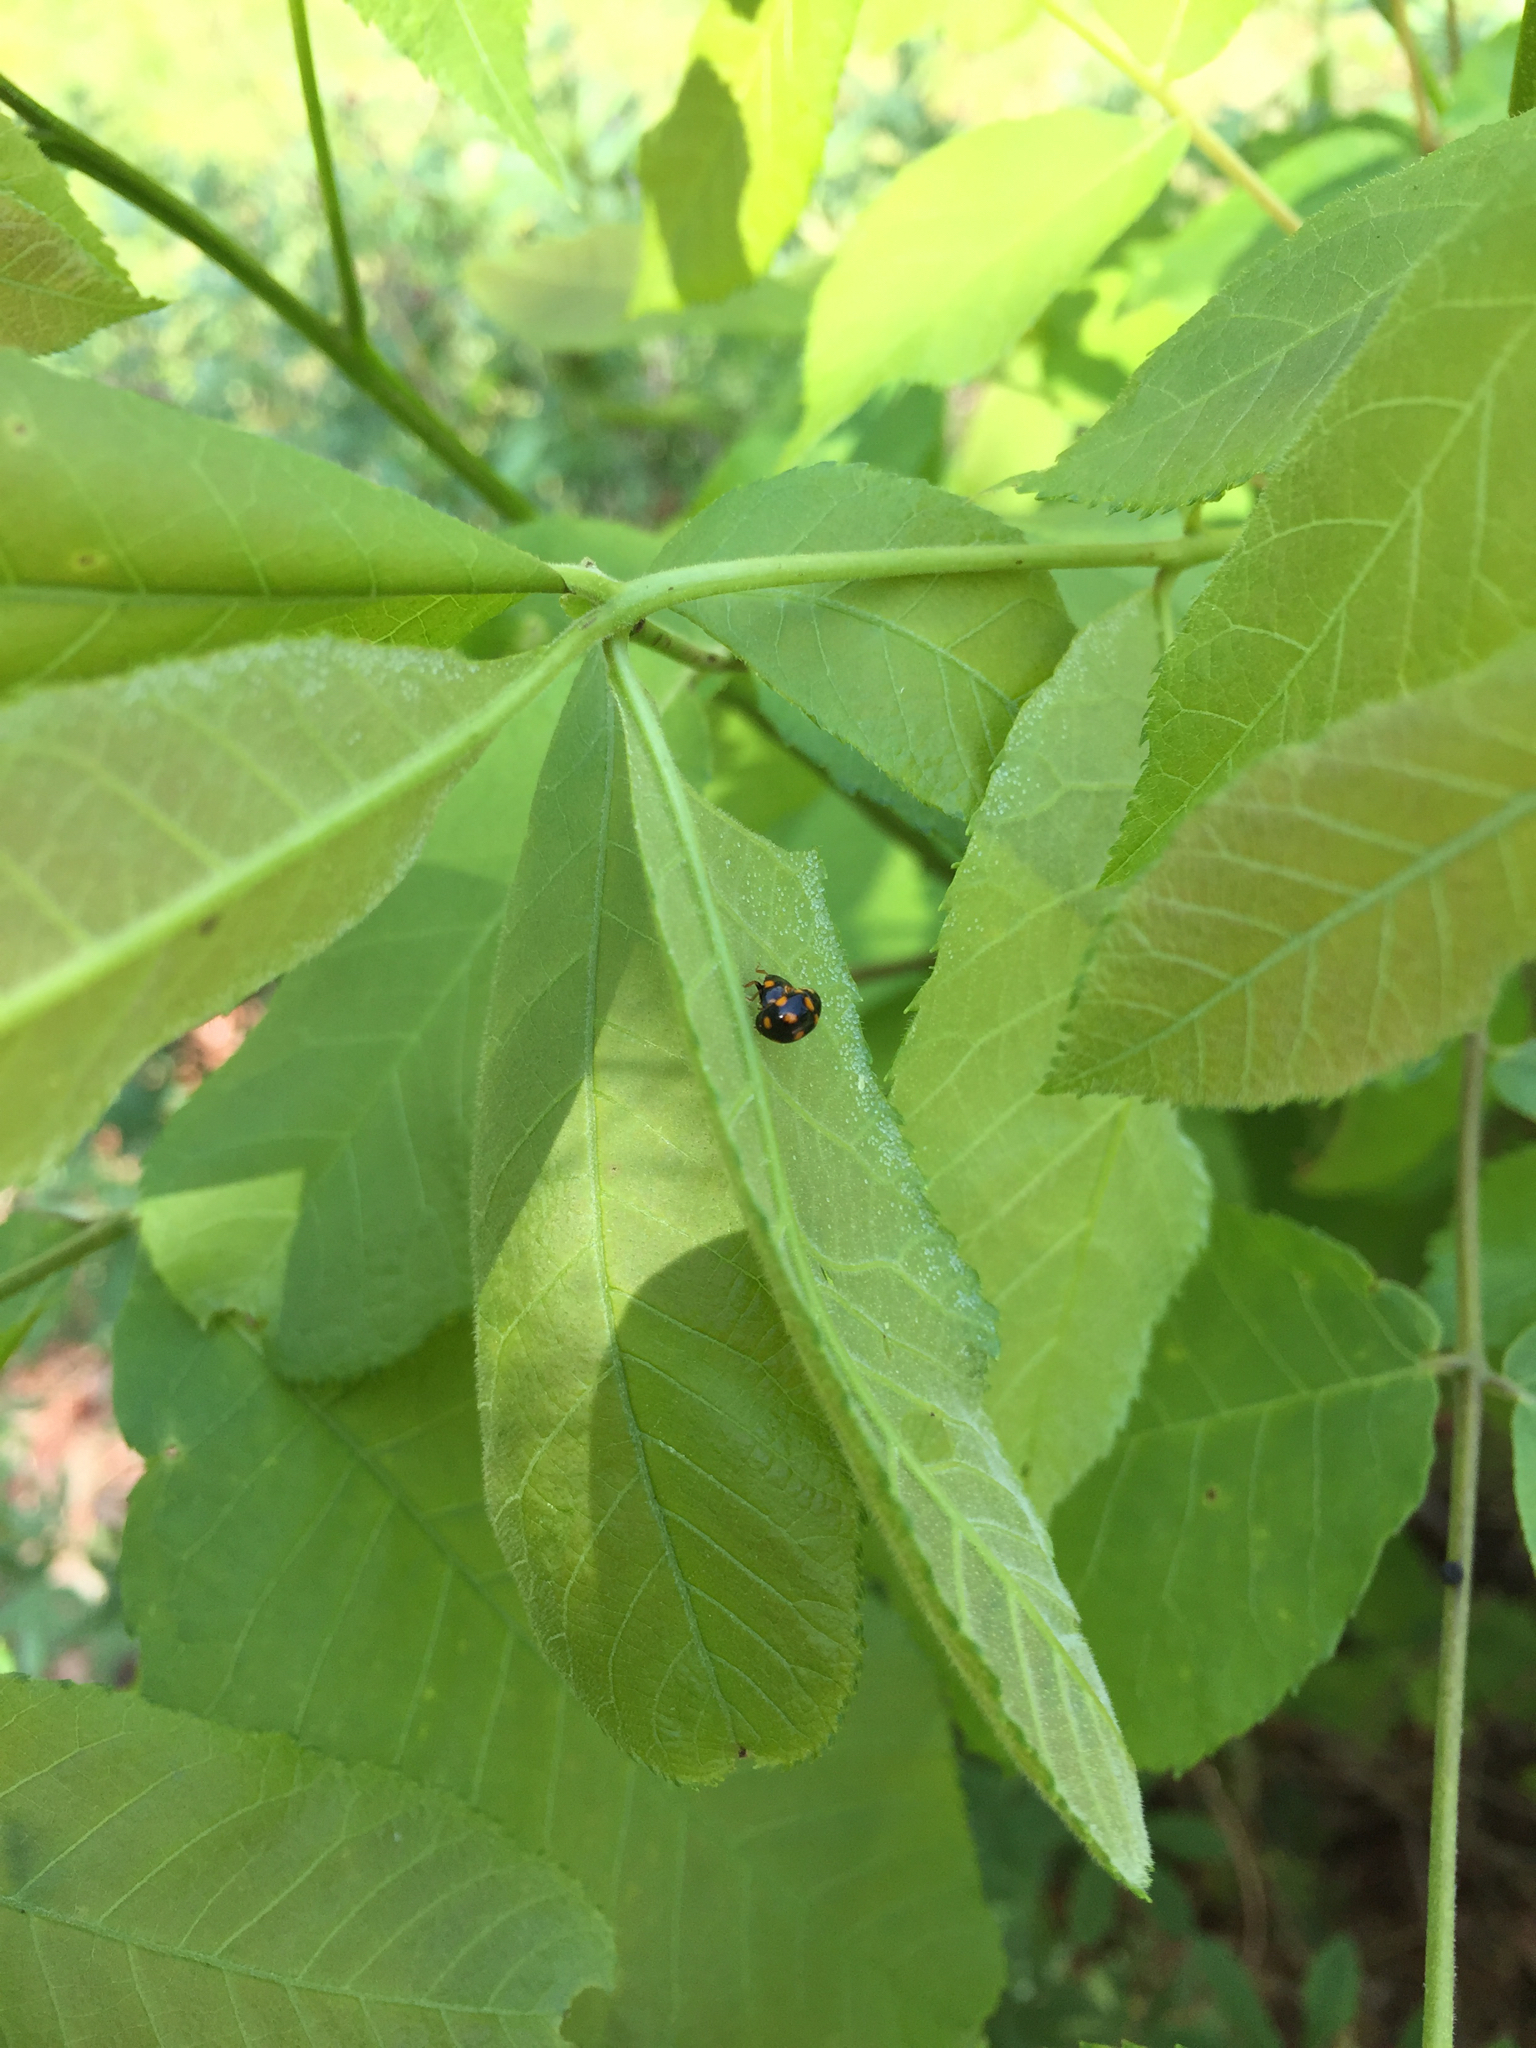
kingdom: Animalia
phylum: Arthropoda
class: Insecta
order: Coleoptera
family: Coccinellidae
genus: Brachiacantha
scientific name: Brachiacantha ursina
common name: Ursine spurleg lady beetle
